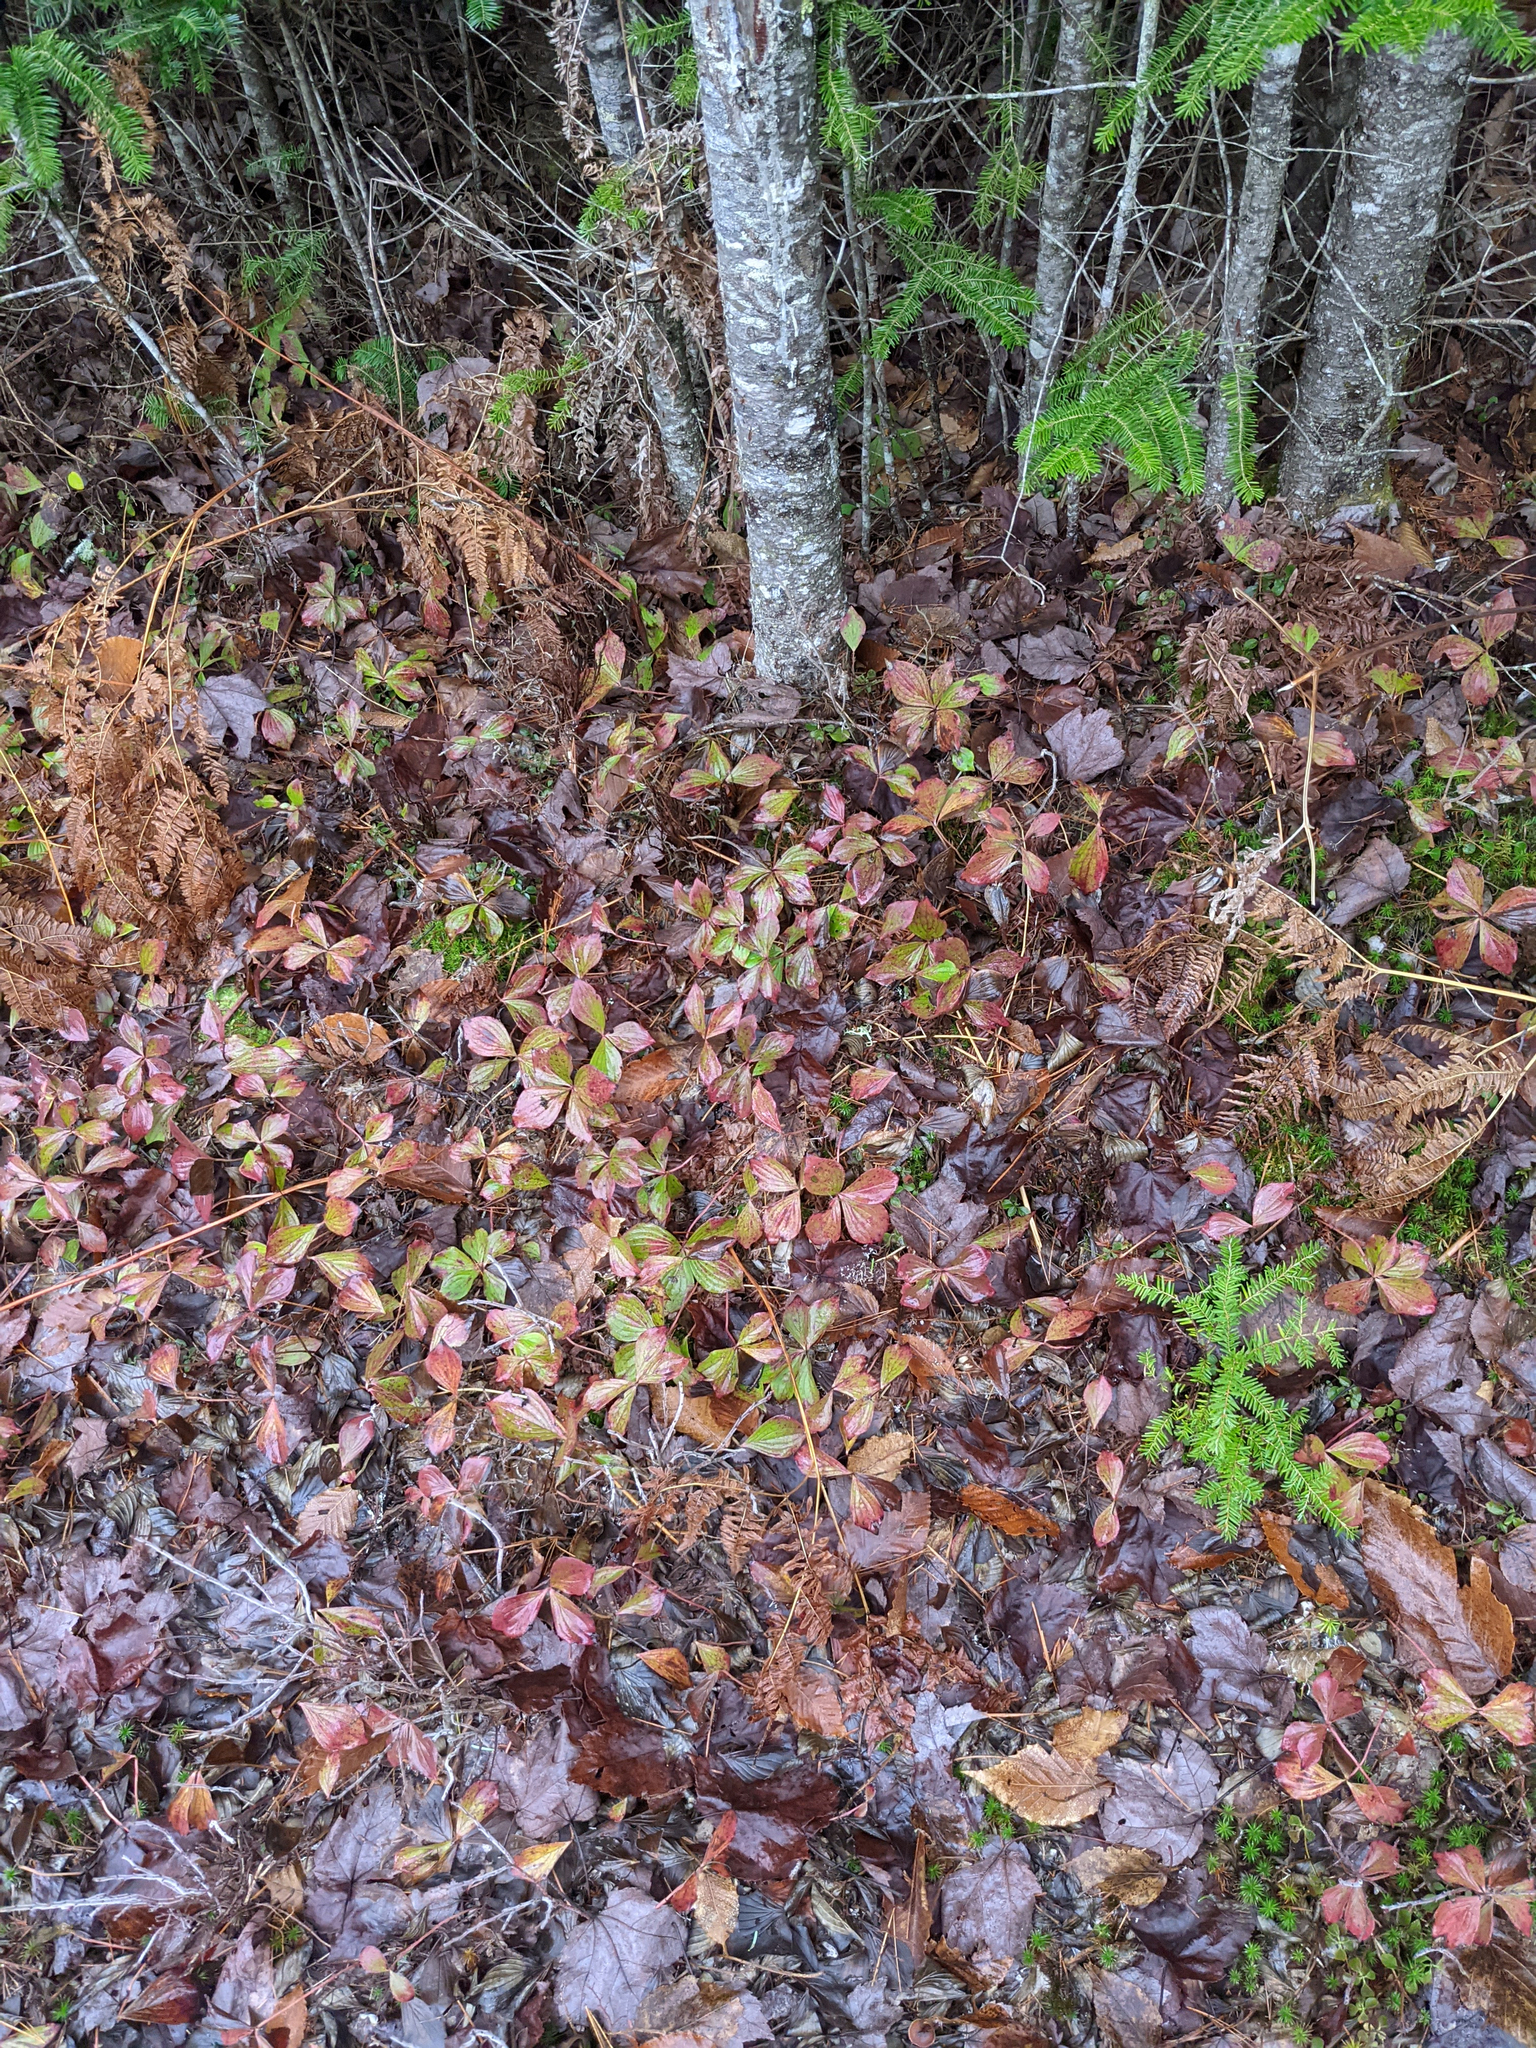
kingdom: Plantae
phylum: Tracheophyta
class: Magnoliopsida
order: Cornales
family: Cornaceae
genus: Cornus
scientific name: Cornus canadensis
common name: Creeping dogwood
